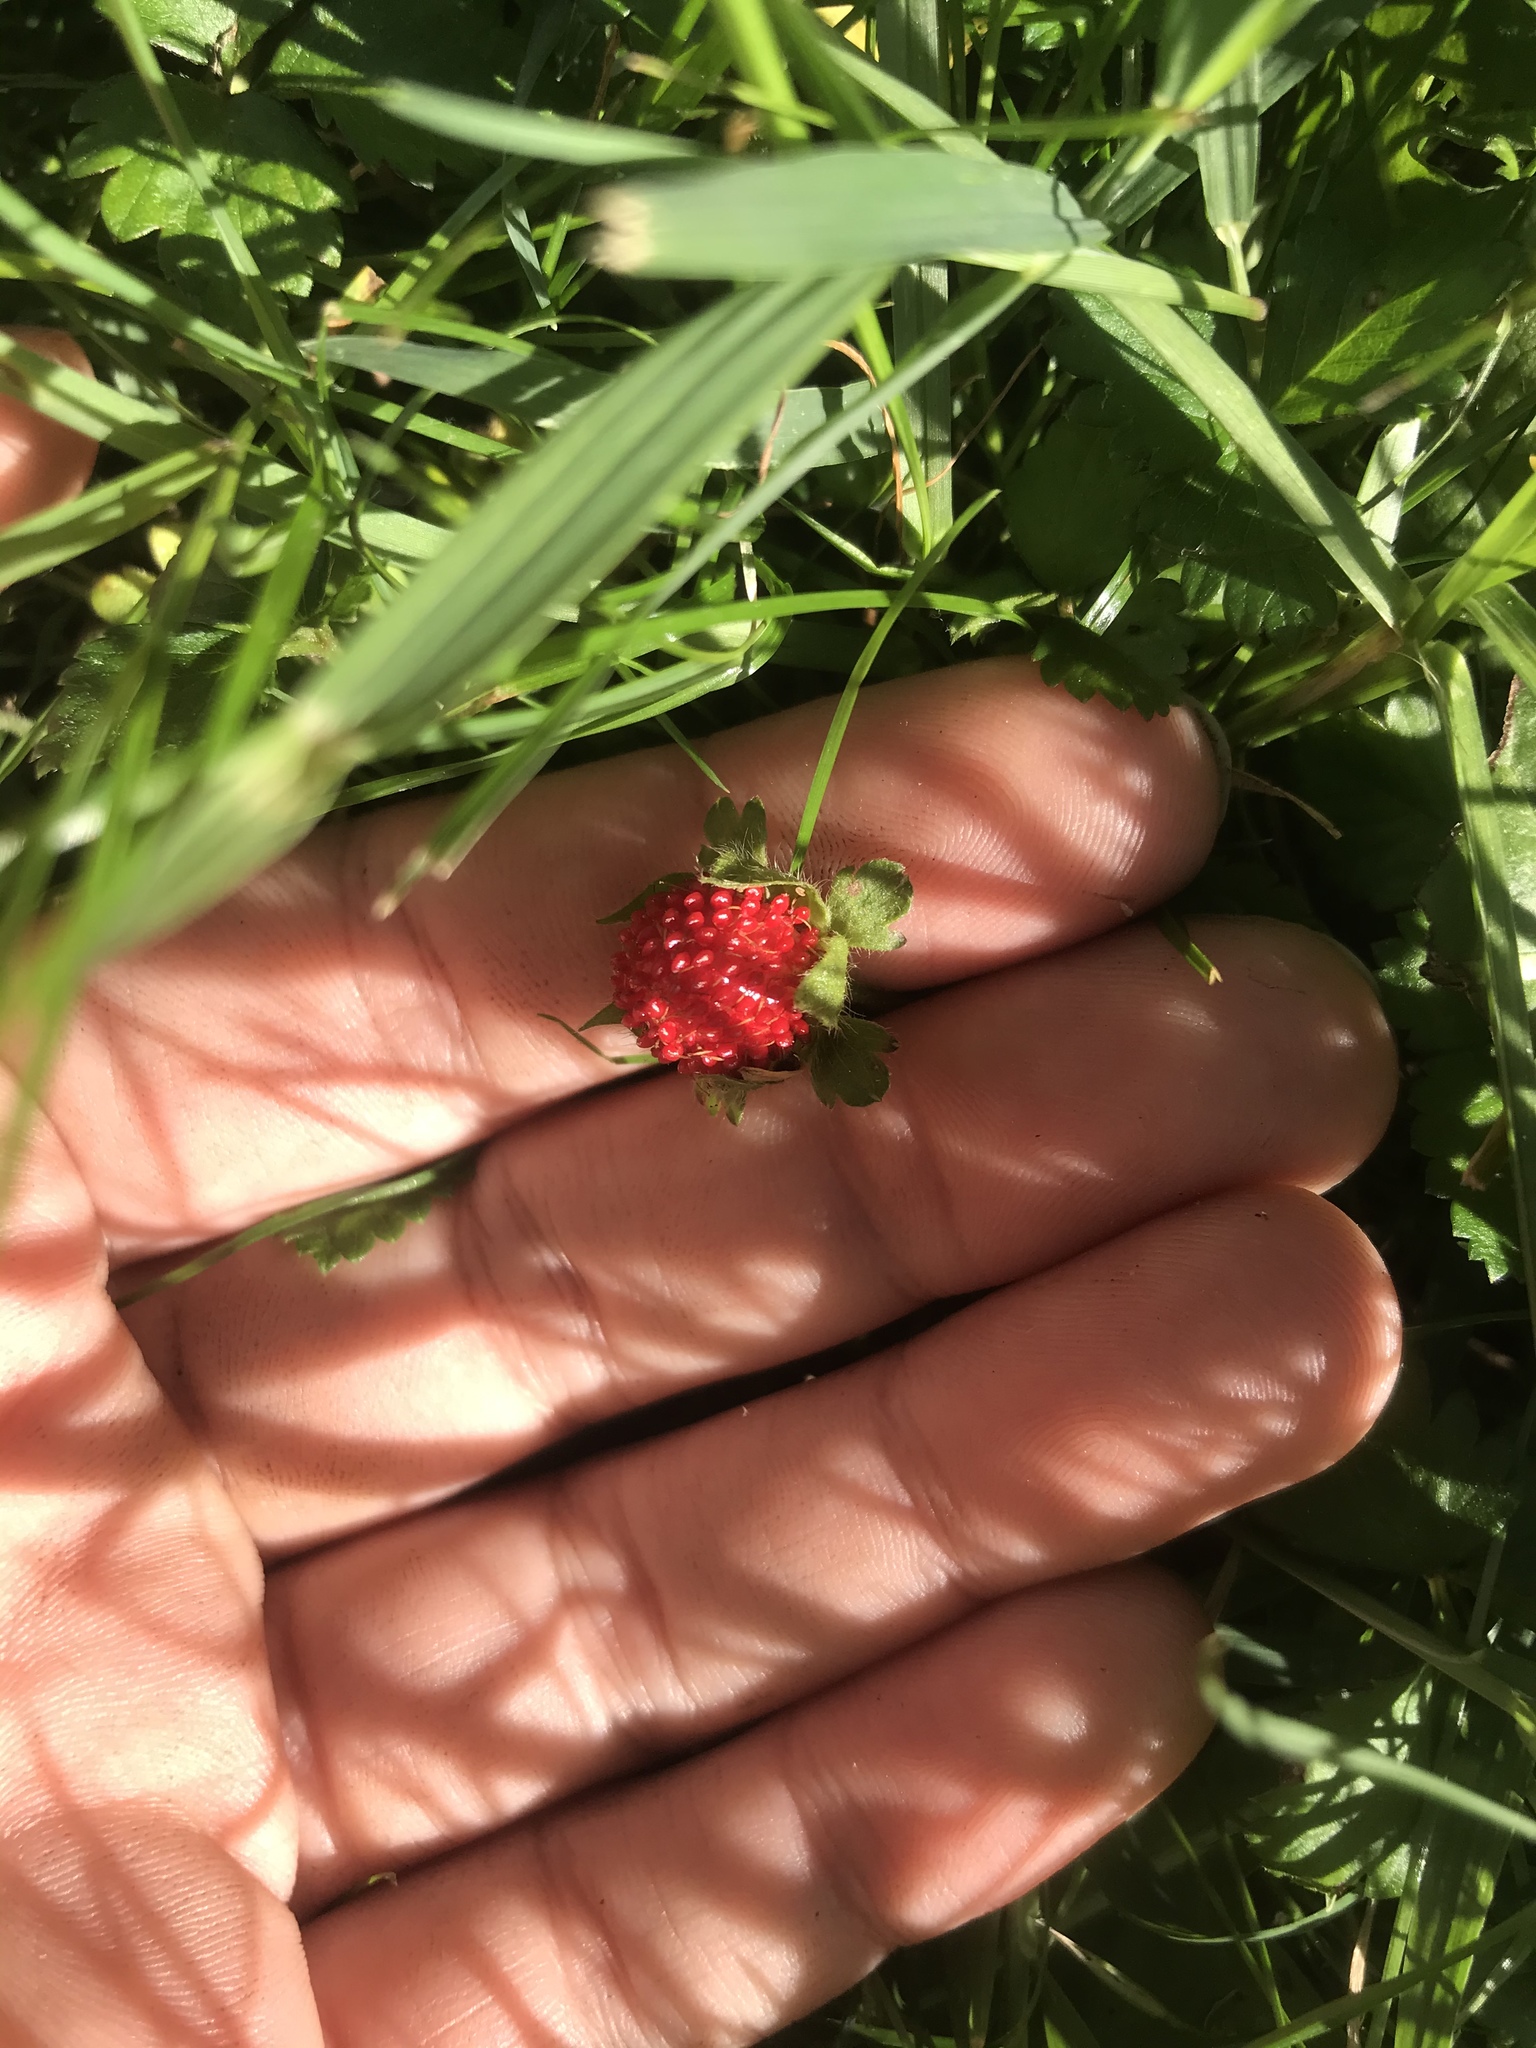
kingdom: Plantae
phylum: Tracheophyta
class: Magnoliopsida
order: Rosales
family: Rosaceae
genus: Potentilla
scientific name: Potentilla indica
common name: Yellow-flowered strawberry
